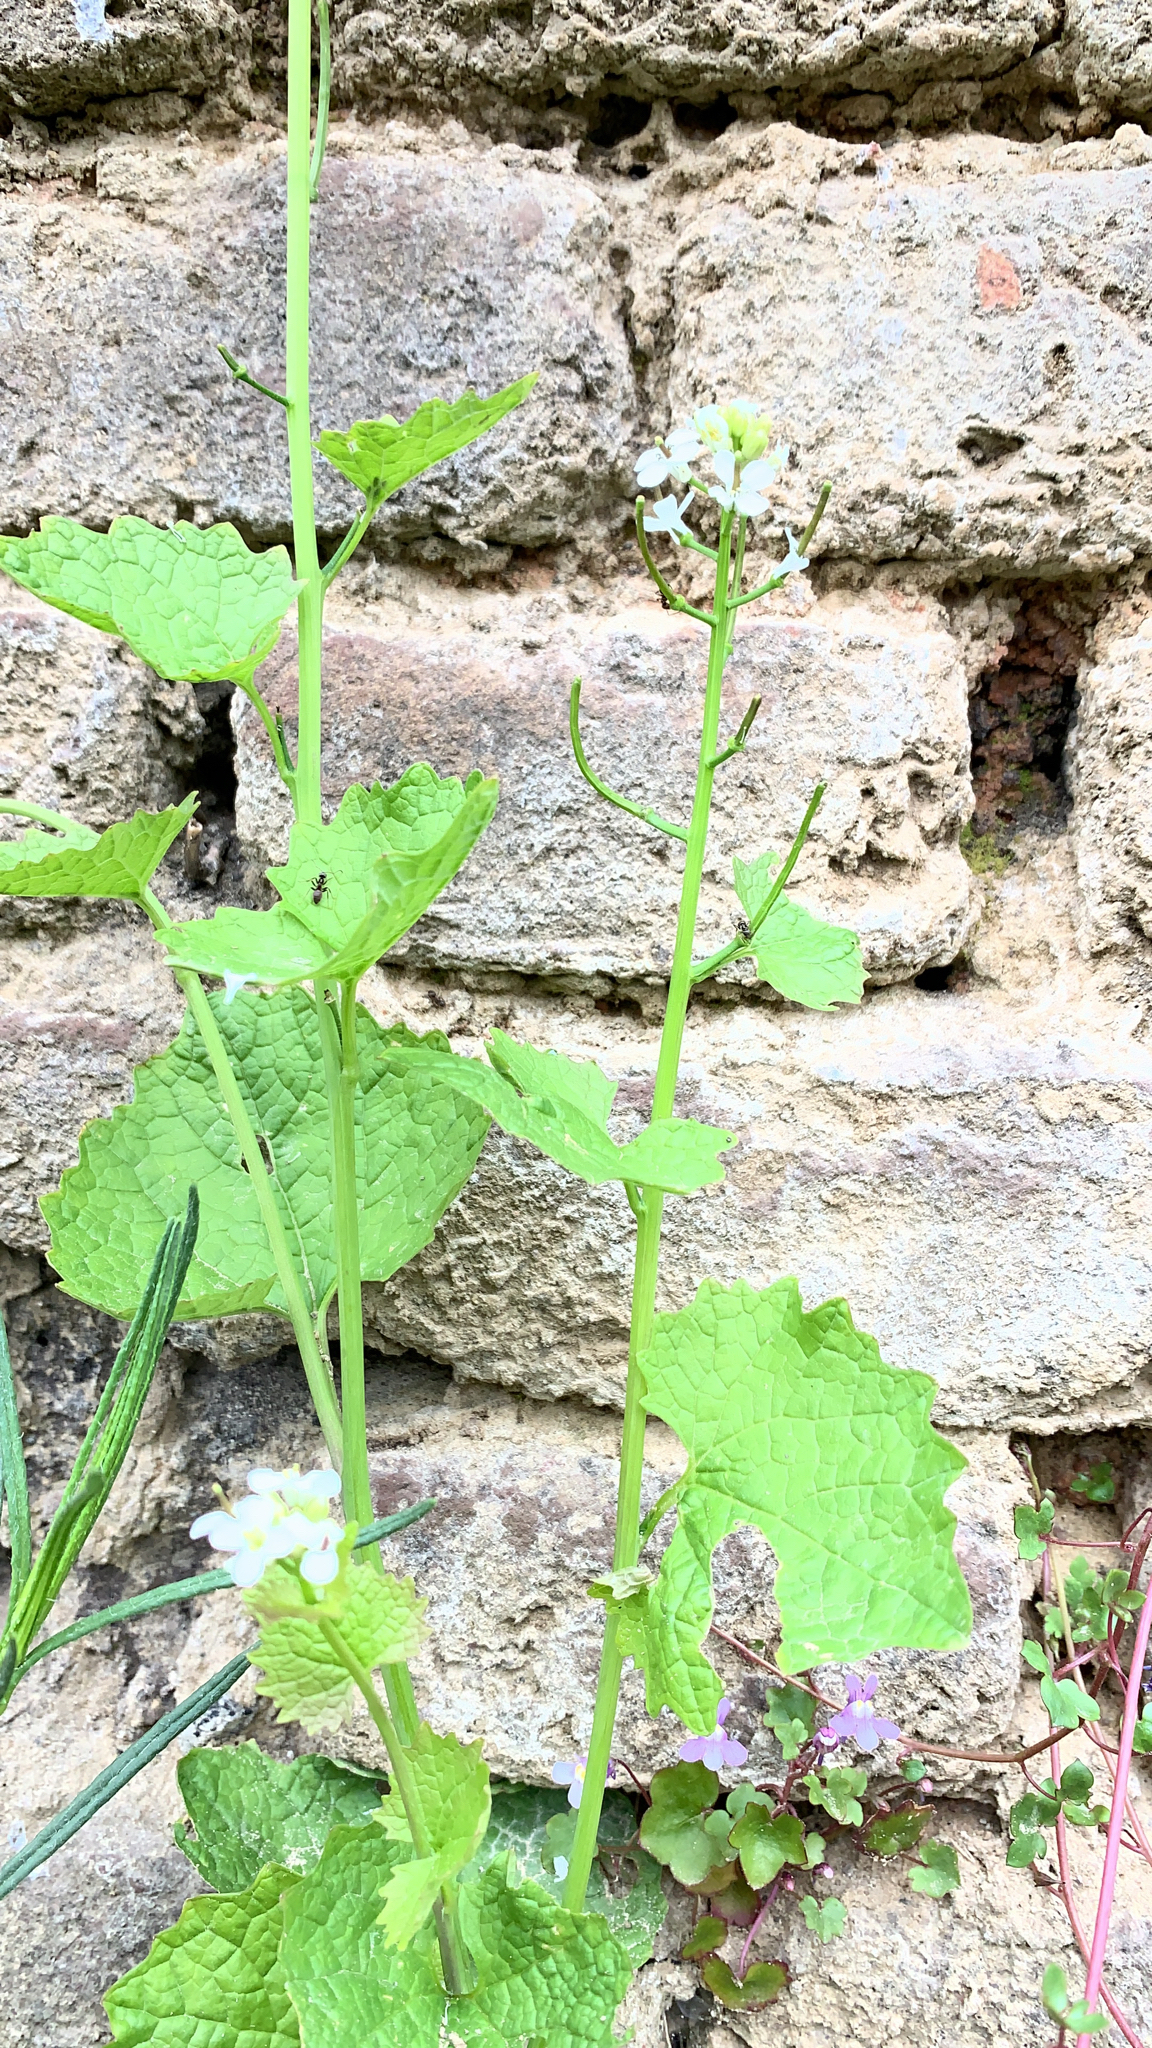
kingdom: Plantae
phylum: Tracheophyta
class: Magnoliopsida
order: Brassicales
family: Brassicaceae
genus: Alliaria
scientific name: Alliaria petiolata
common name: Garlic mustard
